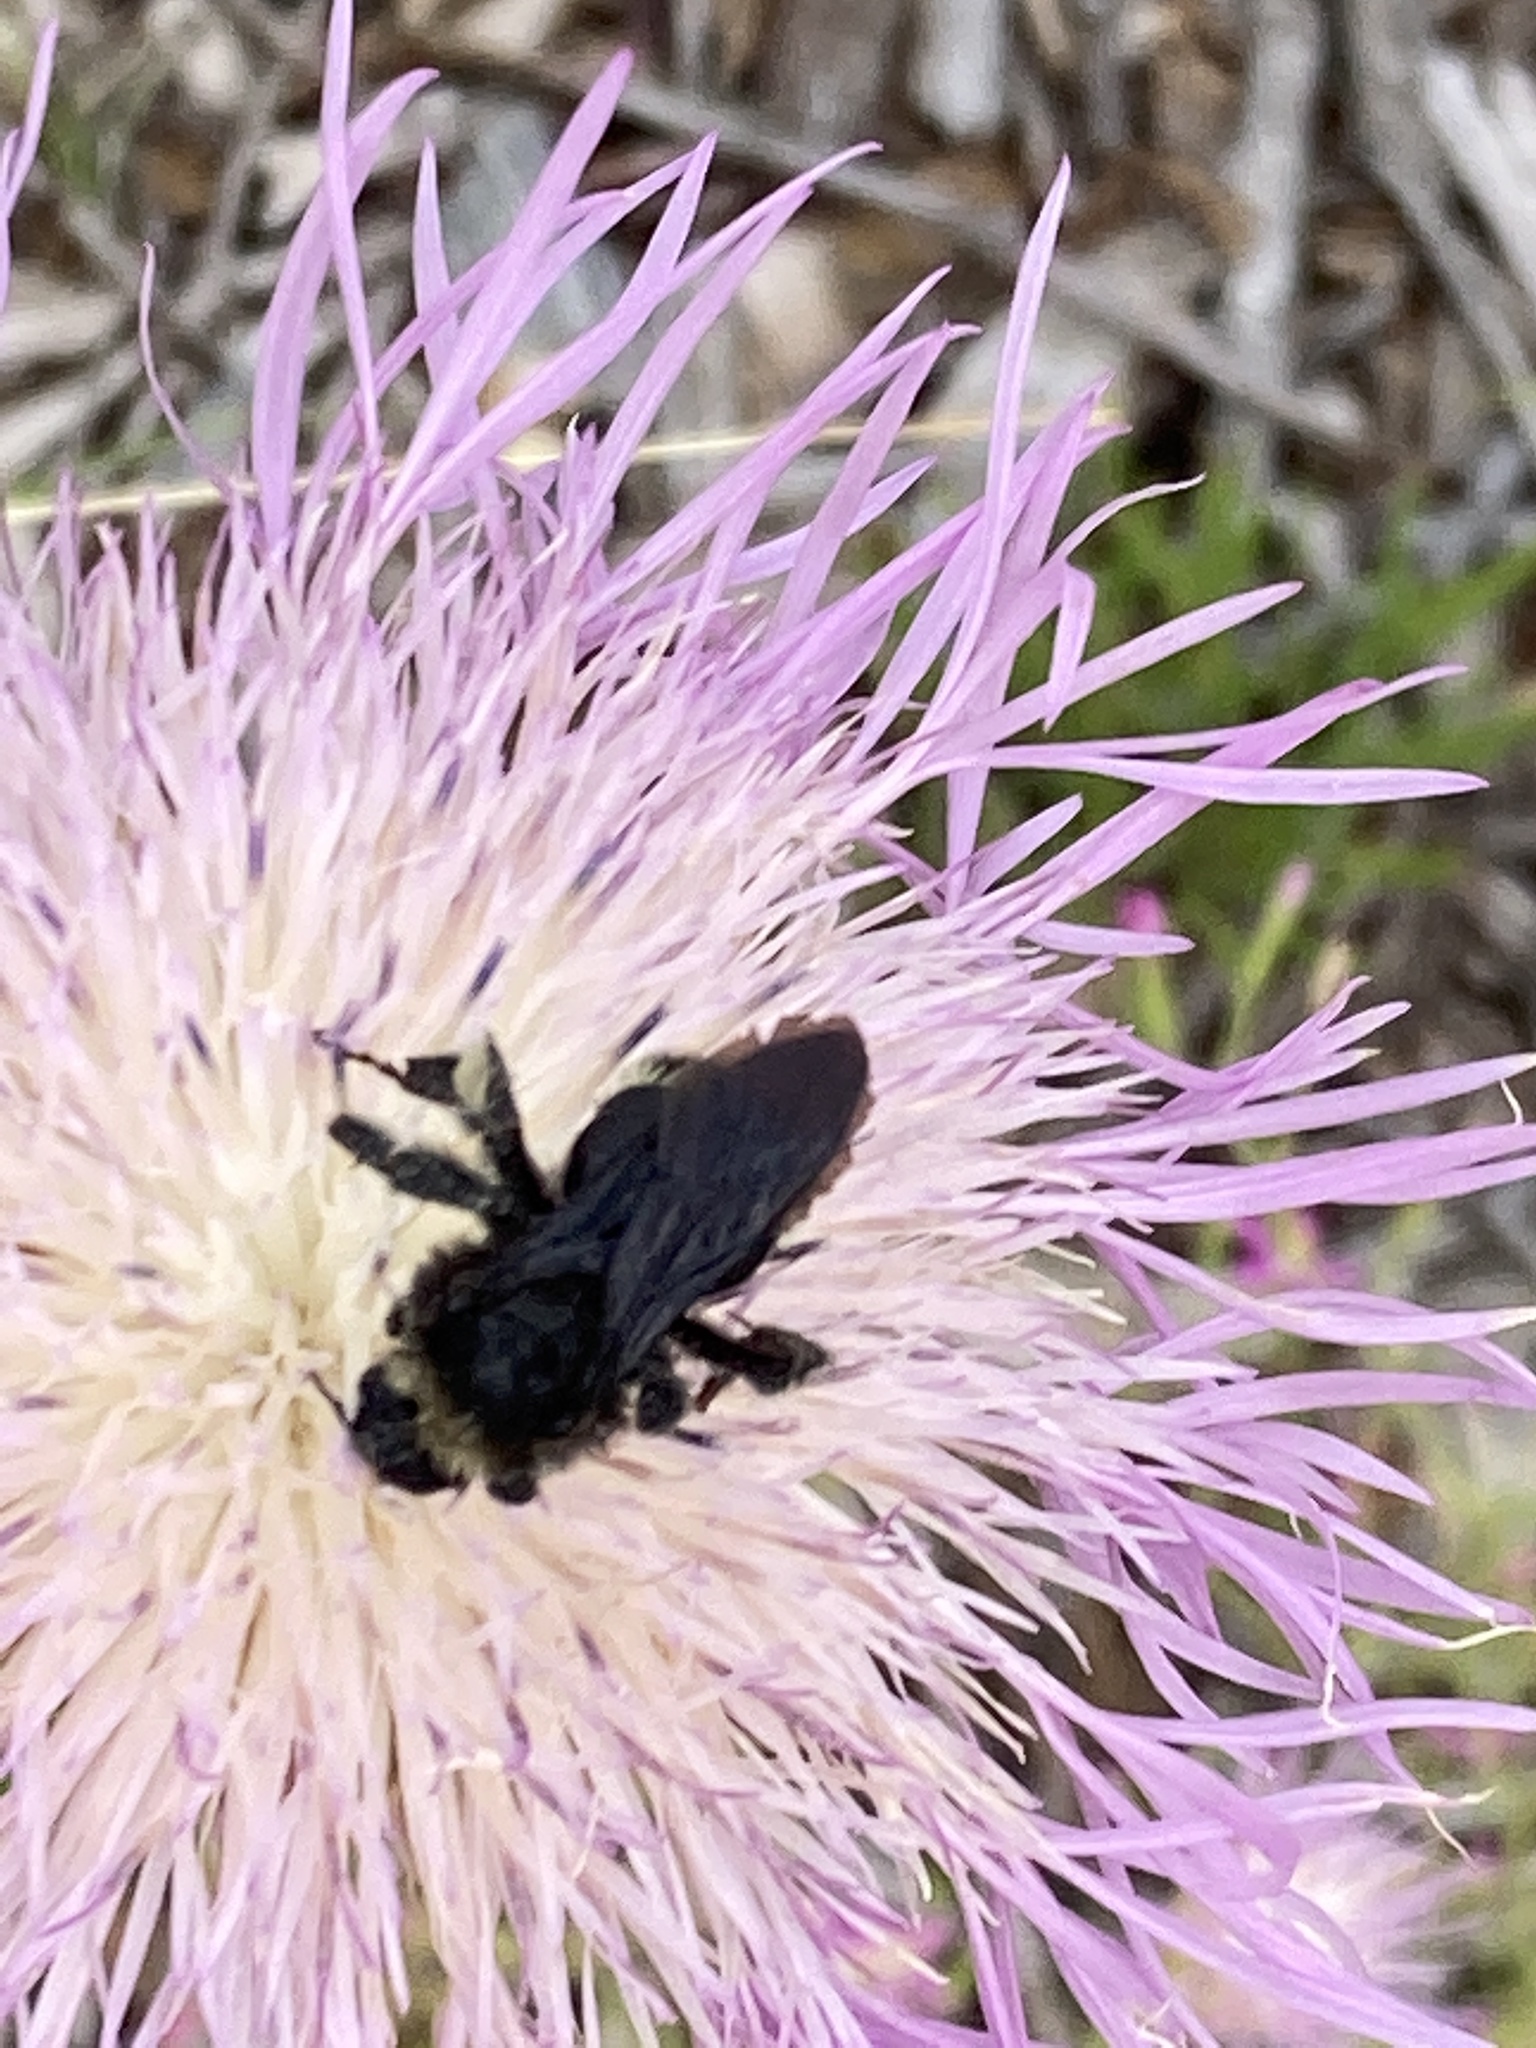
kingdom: Animalia
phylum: Arthropoda
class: Insecta
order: Hymenoptera
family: Apidae
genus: Bombus
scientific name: Bombus
